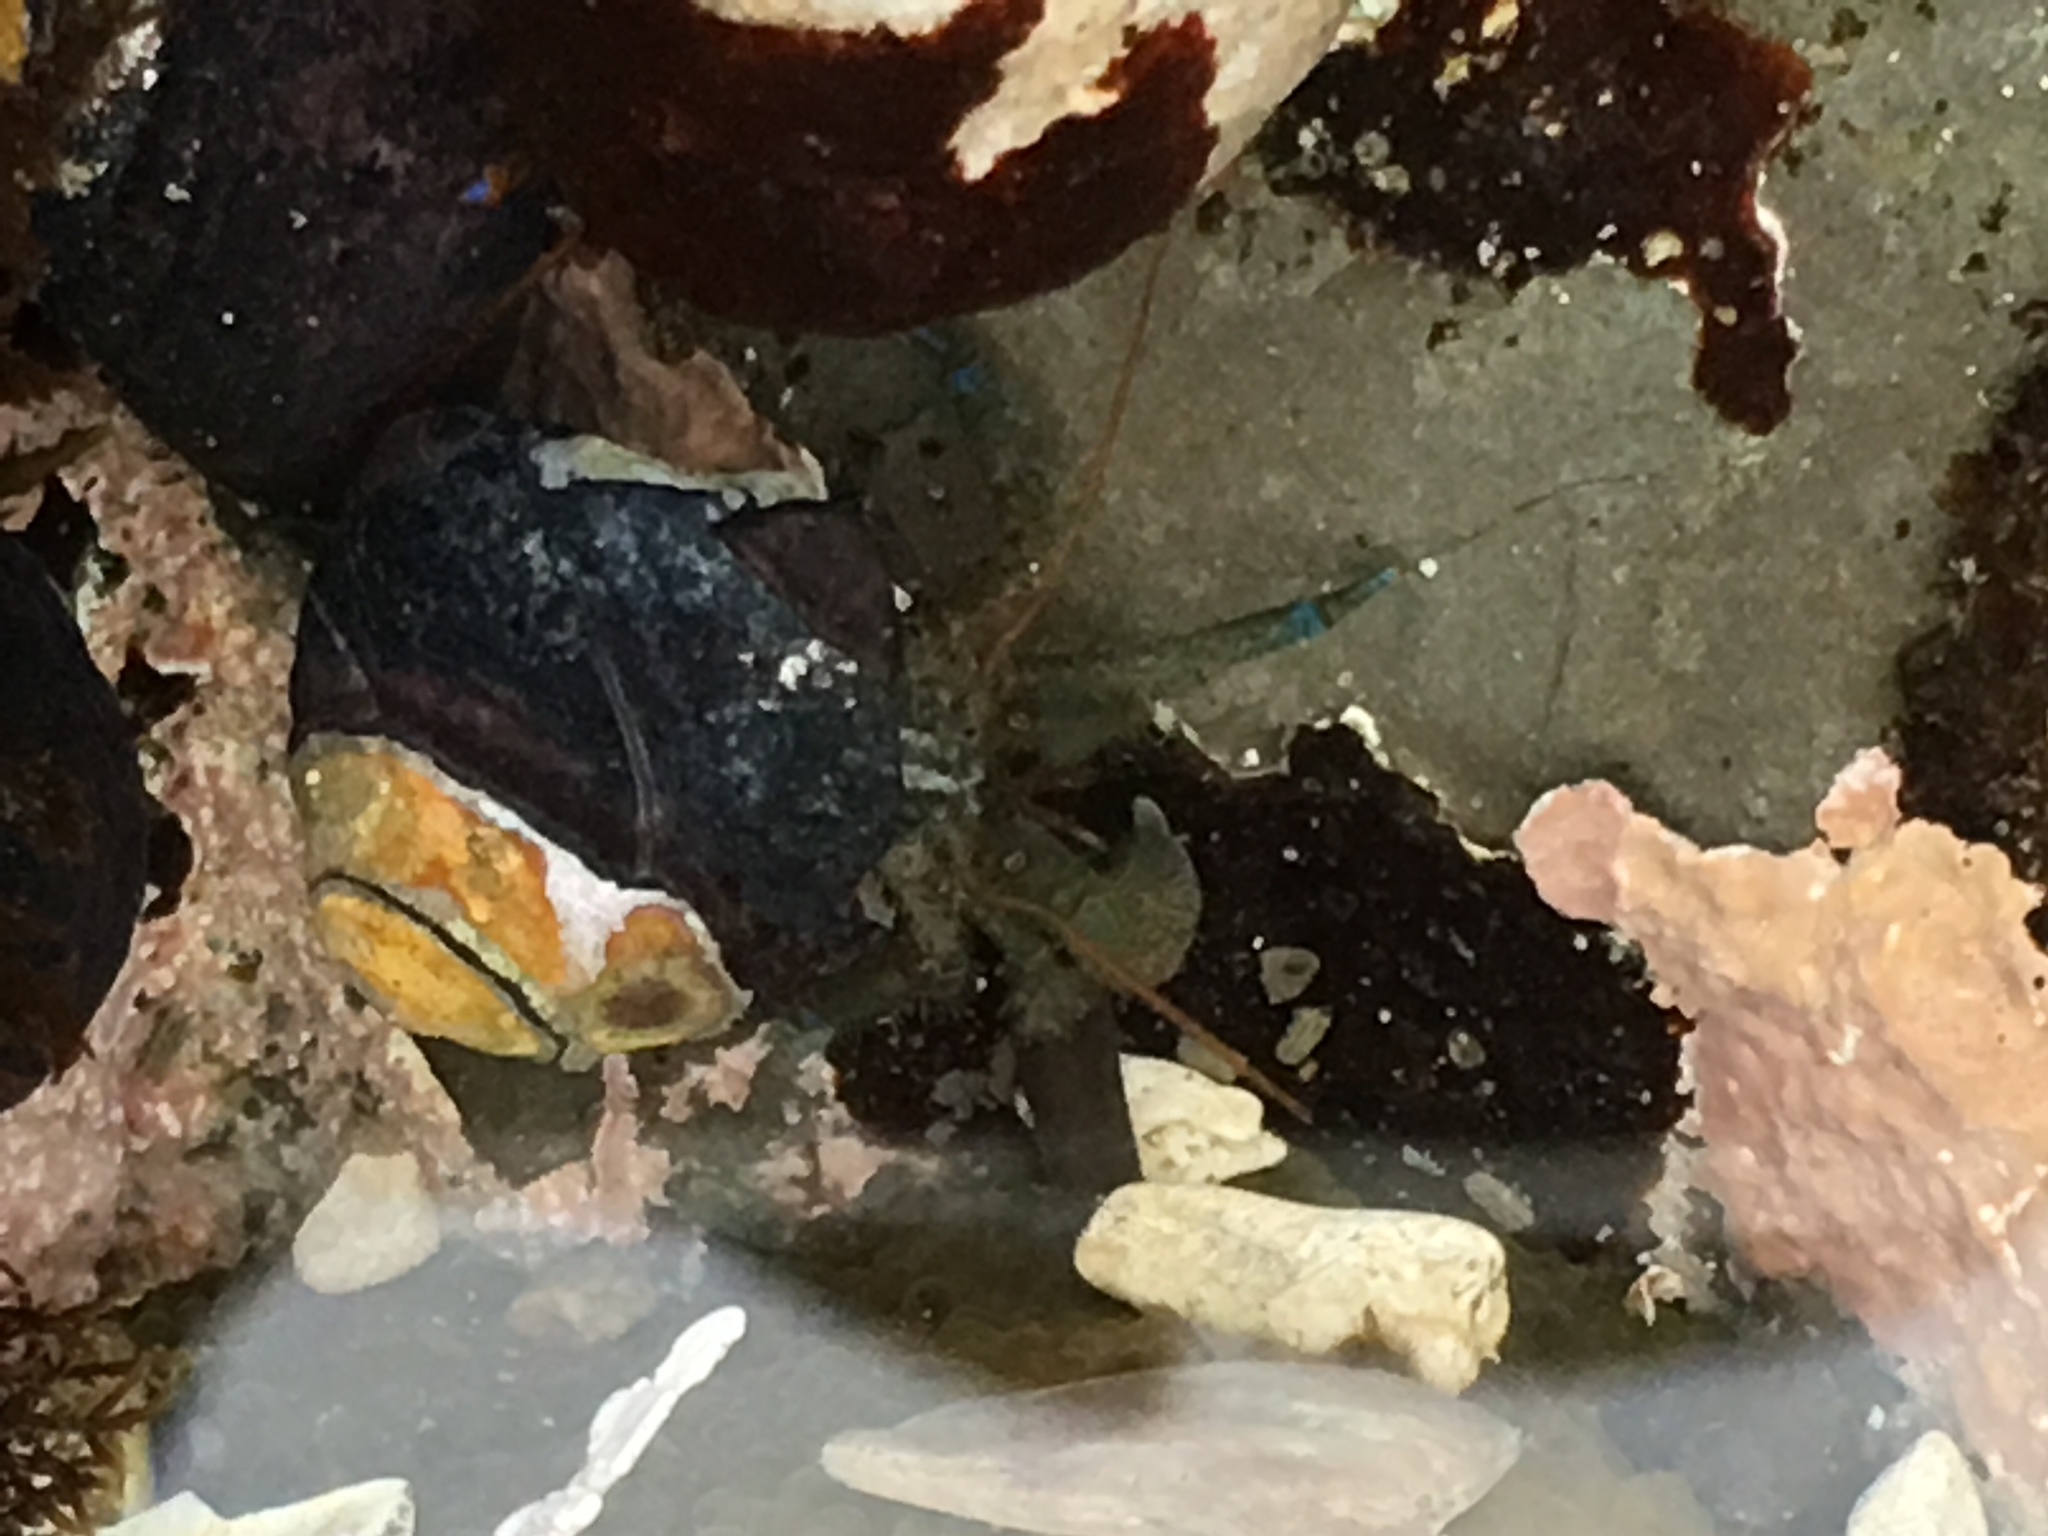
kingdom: Animalia
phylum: Arthropoda
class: Malacostraca
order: Decapoda
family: Paguridae
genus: Pagurus
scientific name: Pagurus samuelis
